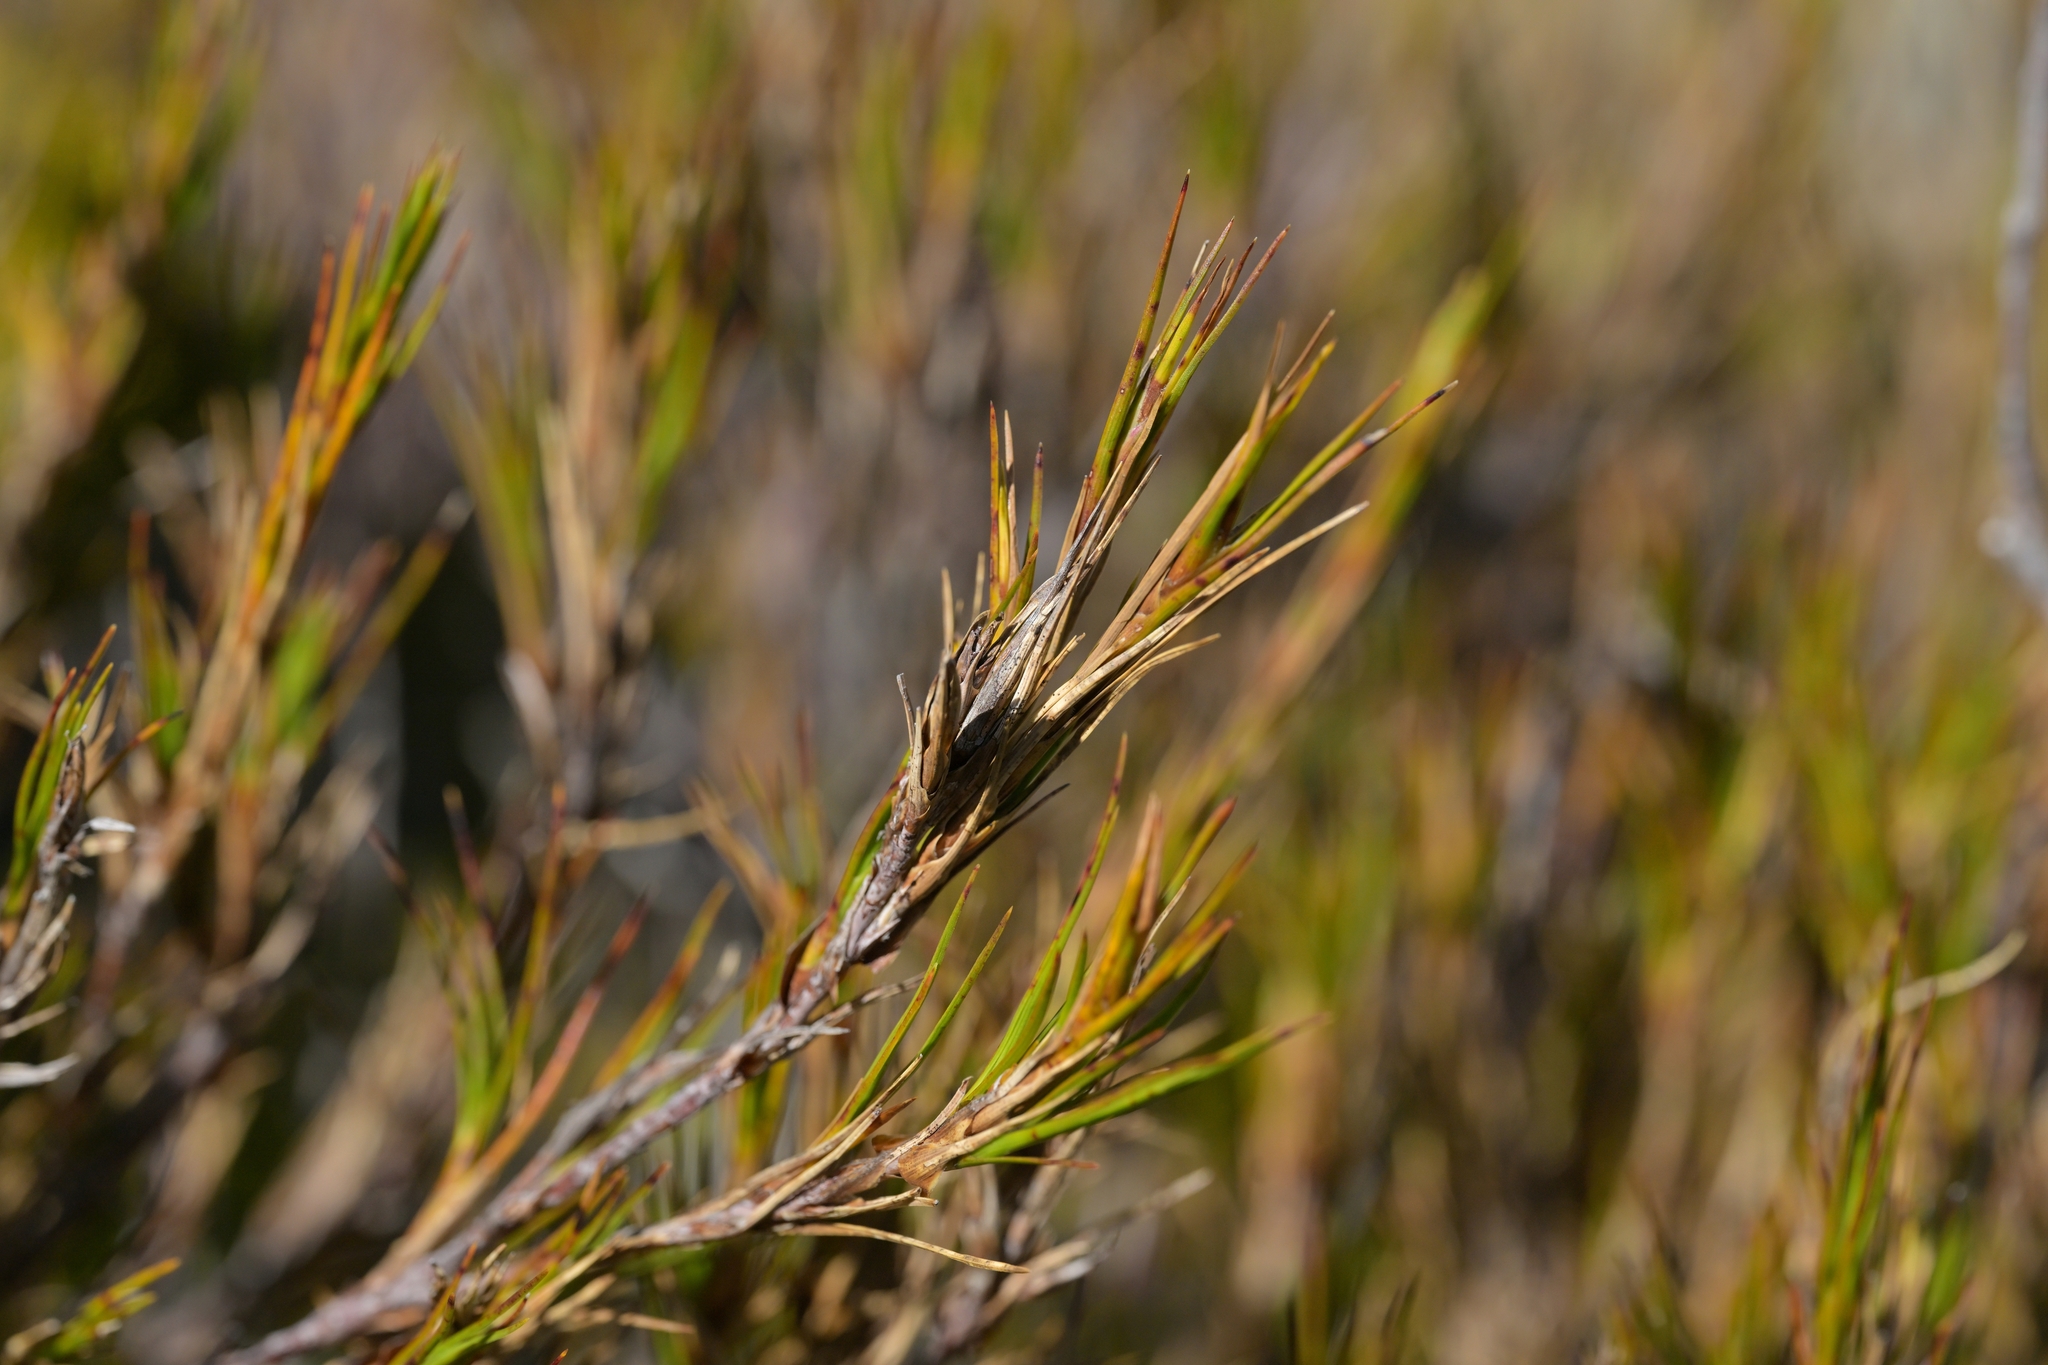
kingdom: Plantae
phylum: Tracheophyta
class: Magnoliopsida
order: Ericales
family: Ericaceae
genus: Dracophyllum
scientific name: Dracophyllum longifolium
